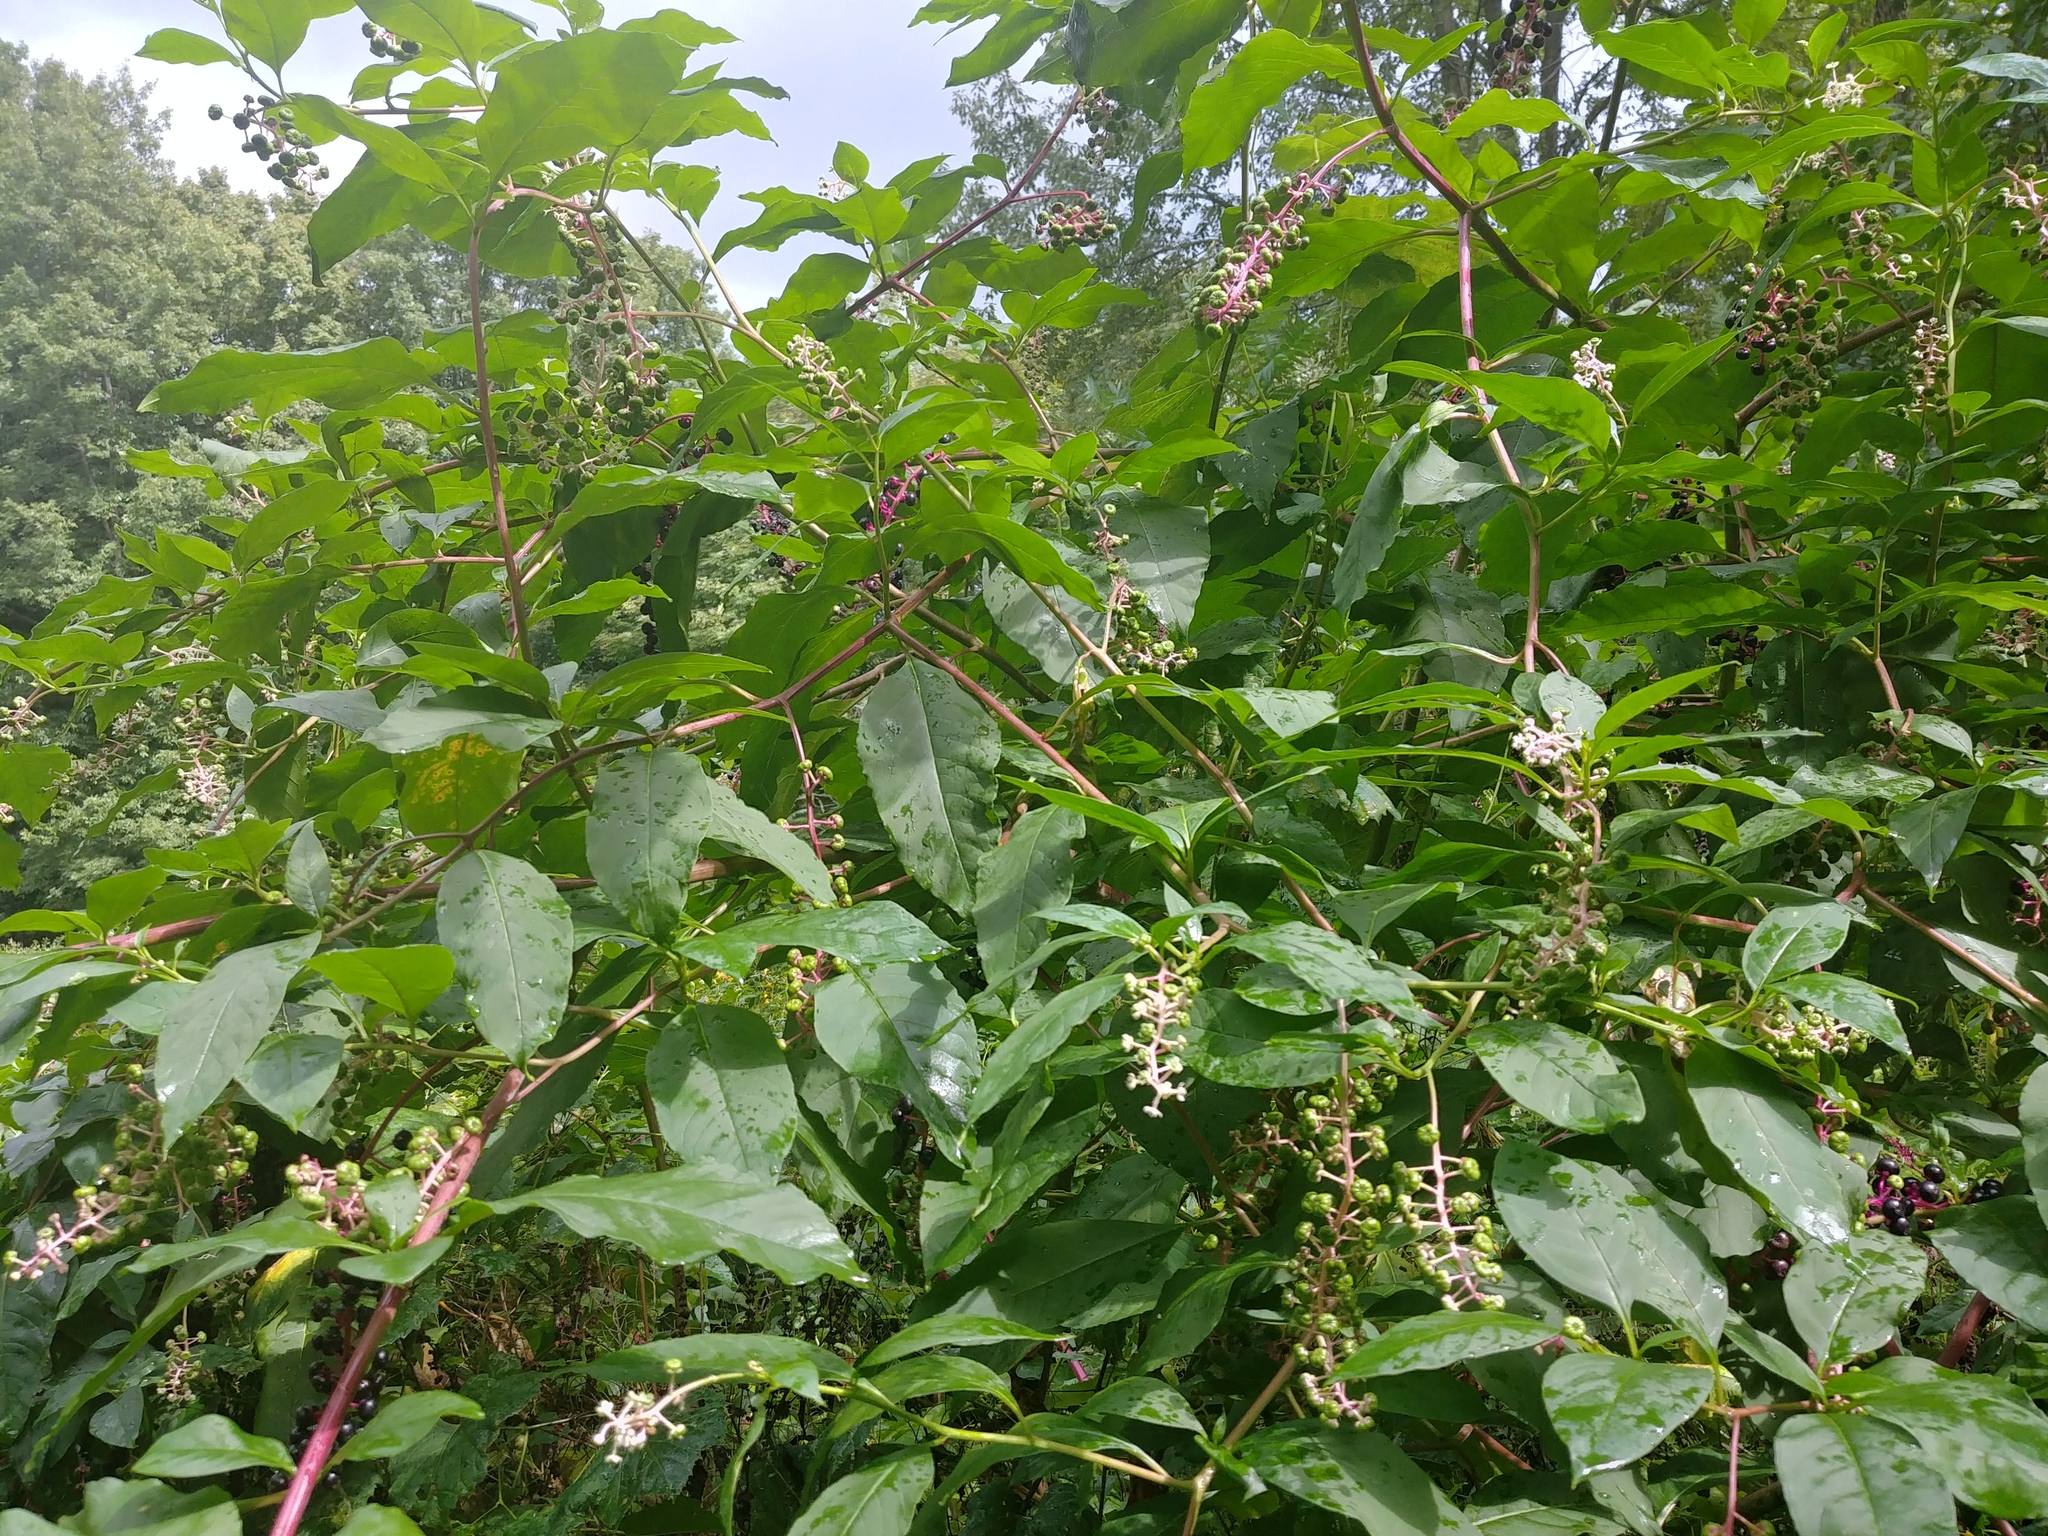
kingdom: Plantae
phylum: Tracheophyta
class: Magnoliopsida
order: Caryophyllales
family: Phytolaccaceae
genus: Phytolacca
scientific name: Phytolacca americana
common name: American pokeweed
